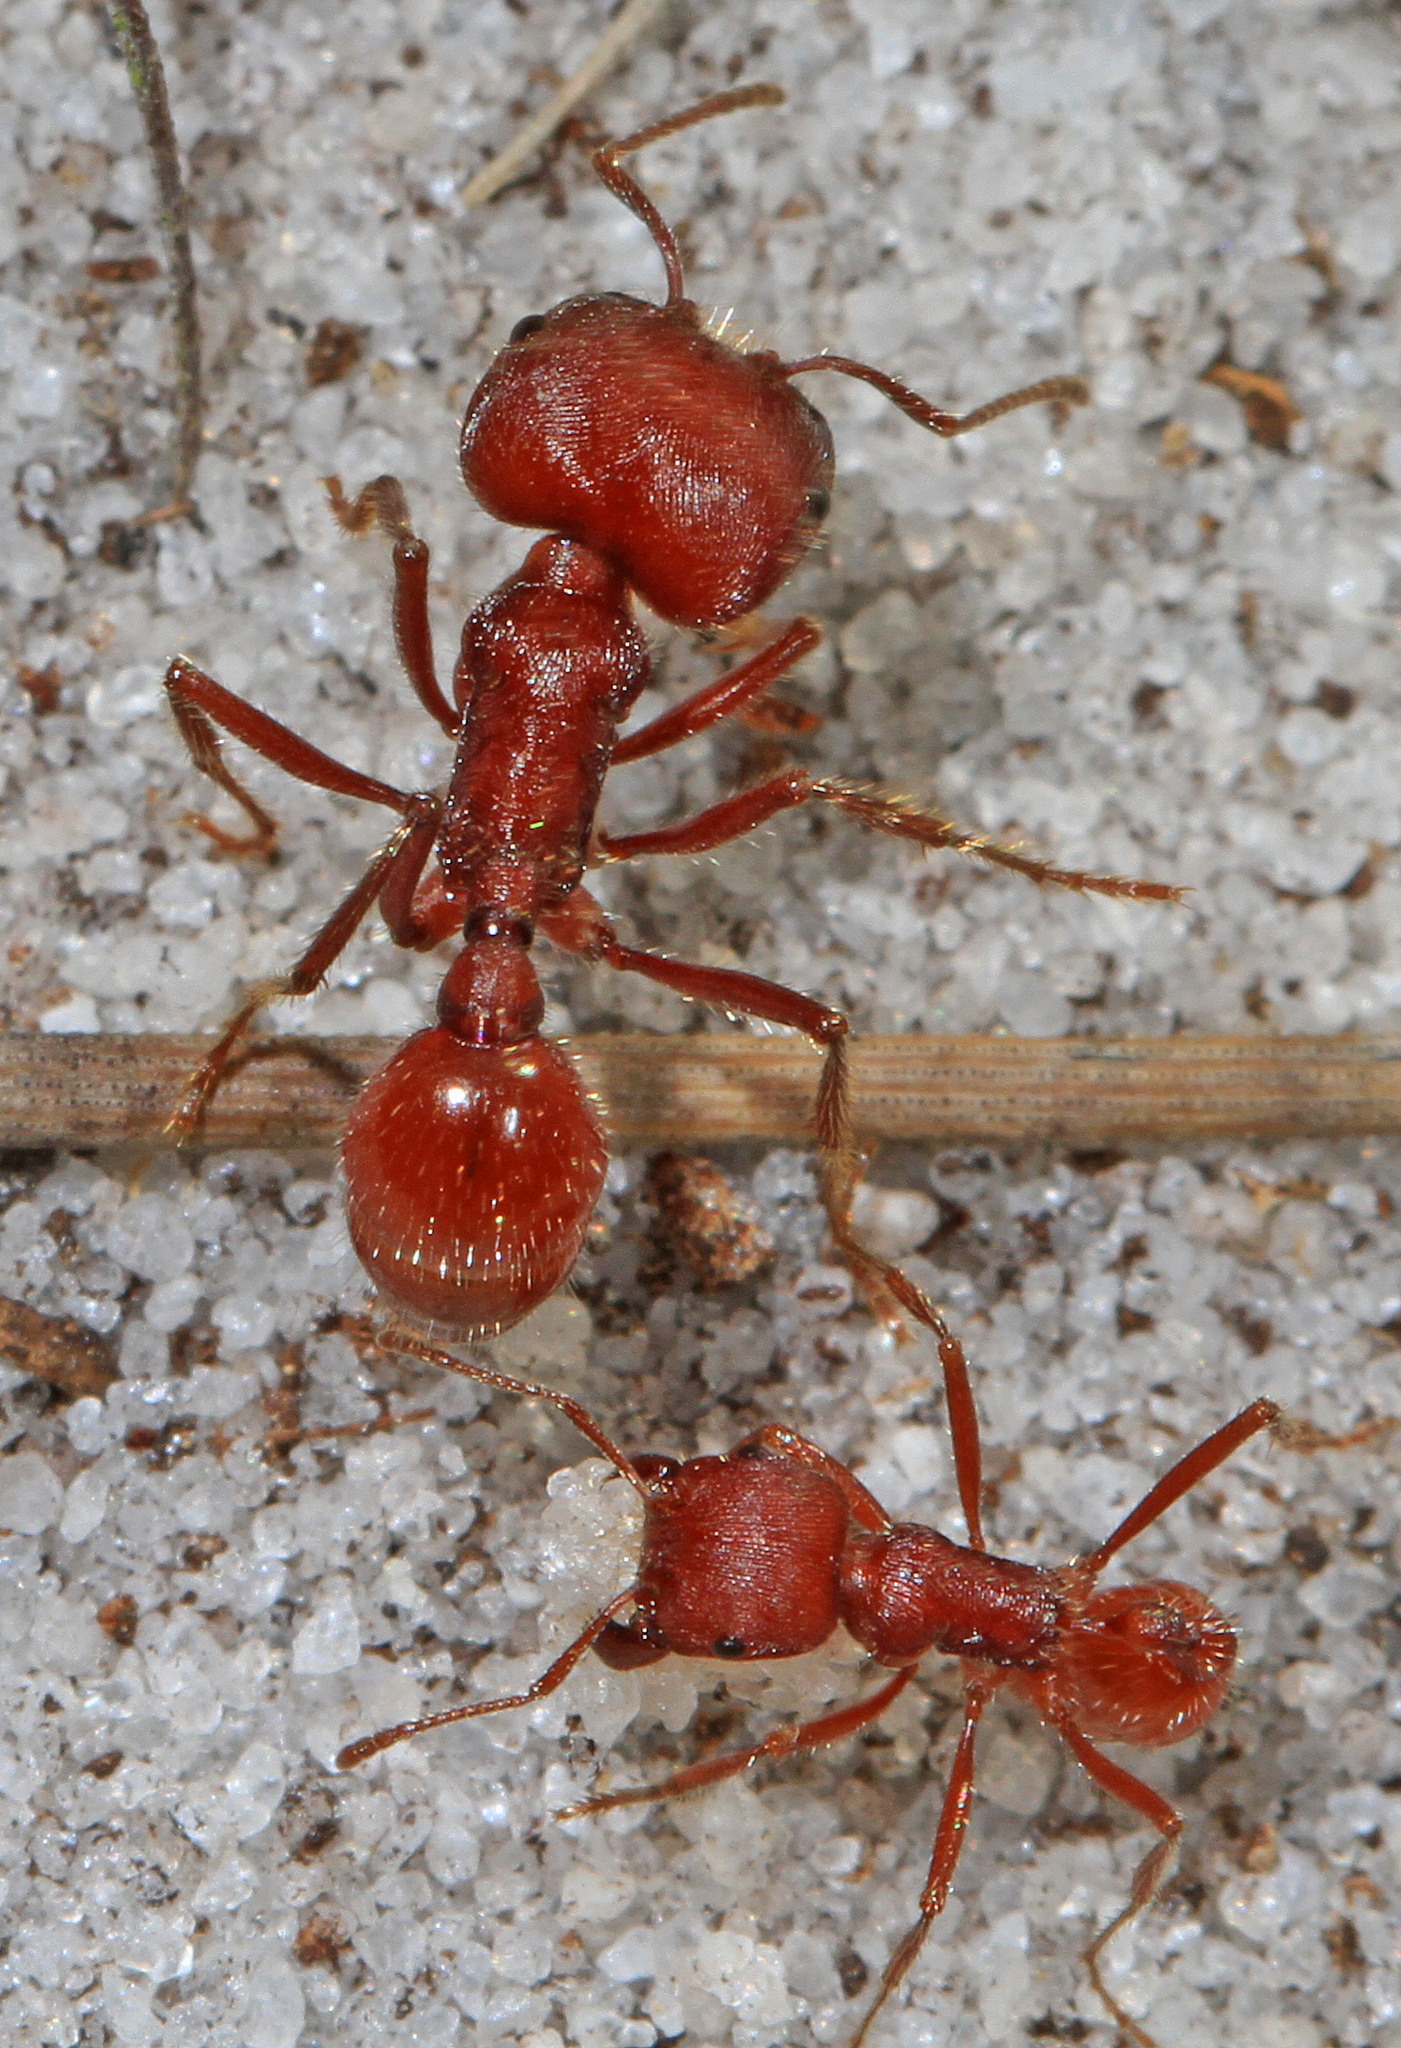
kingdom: Animalia
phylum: Arthropoda
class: Insecta
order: Hymenoptera
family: Formicidae
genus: Pogonomyrmex
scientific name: Pogonomyrmex badius
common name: Florida harvester ant
